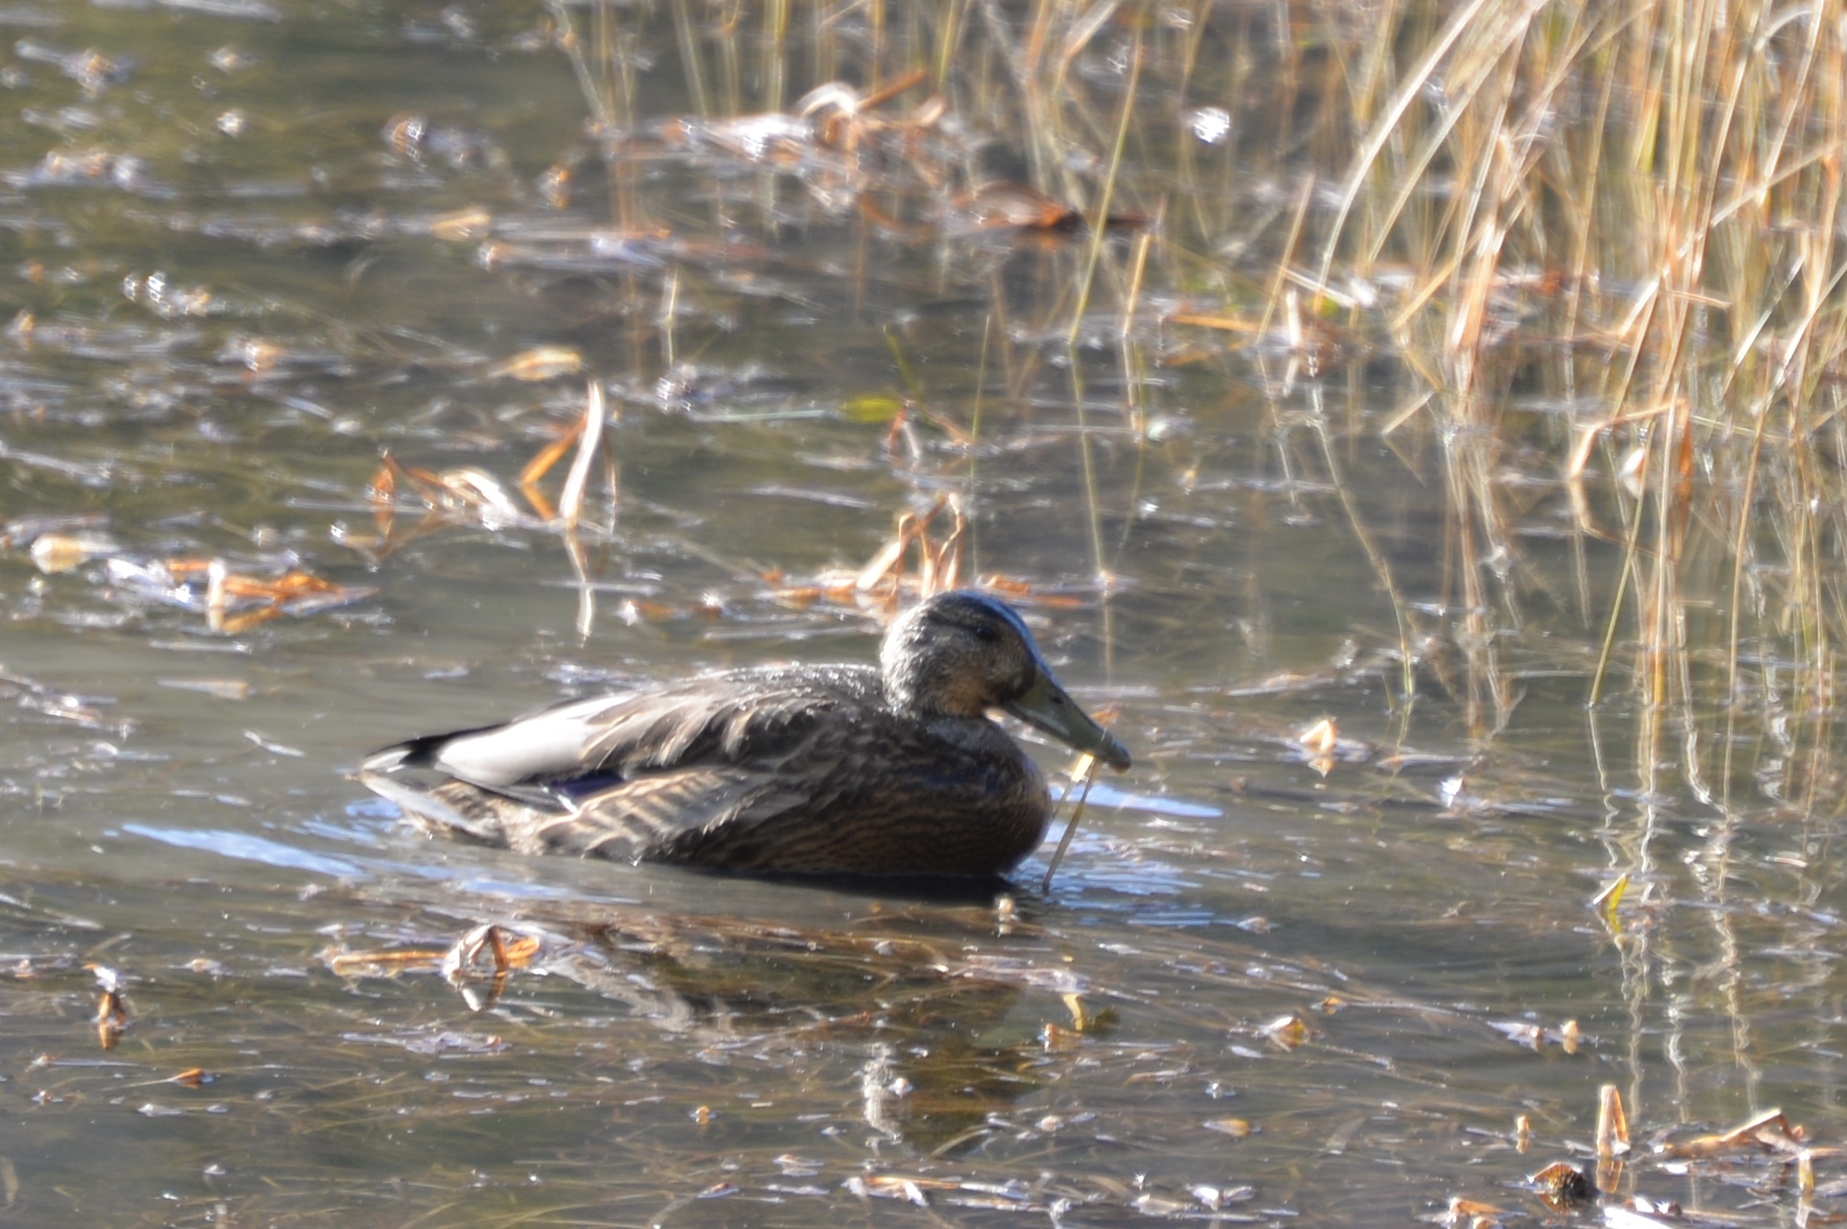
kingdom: Animalia
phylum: Chordata
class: Aves
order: Anseriformes
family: Anatidae
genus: Anas
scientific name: Anas platyrhynchos
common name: Mallard
